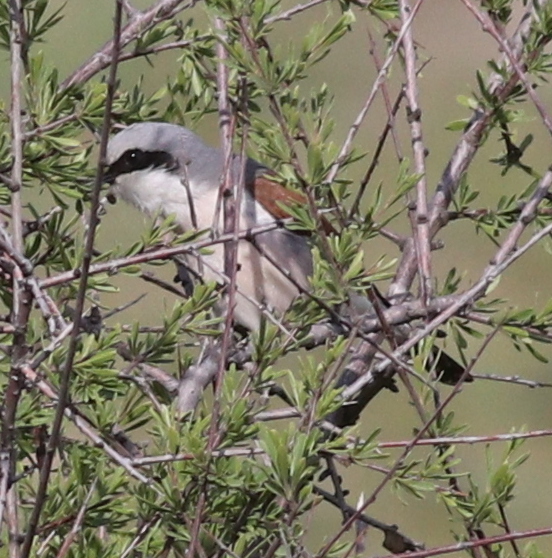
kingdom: Animalia
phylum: Chordata
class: Aves
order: Passeriformes
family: Laniidae
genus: Lanius
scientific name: Lanius collurio
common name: Red-backed shrike
